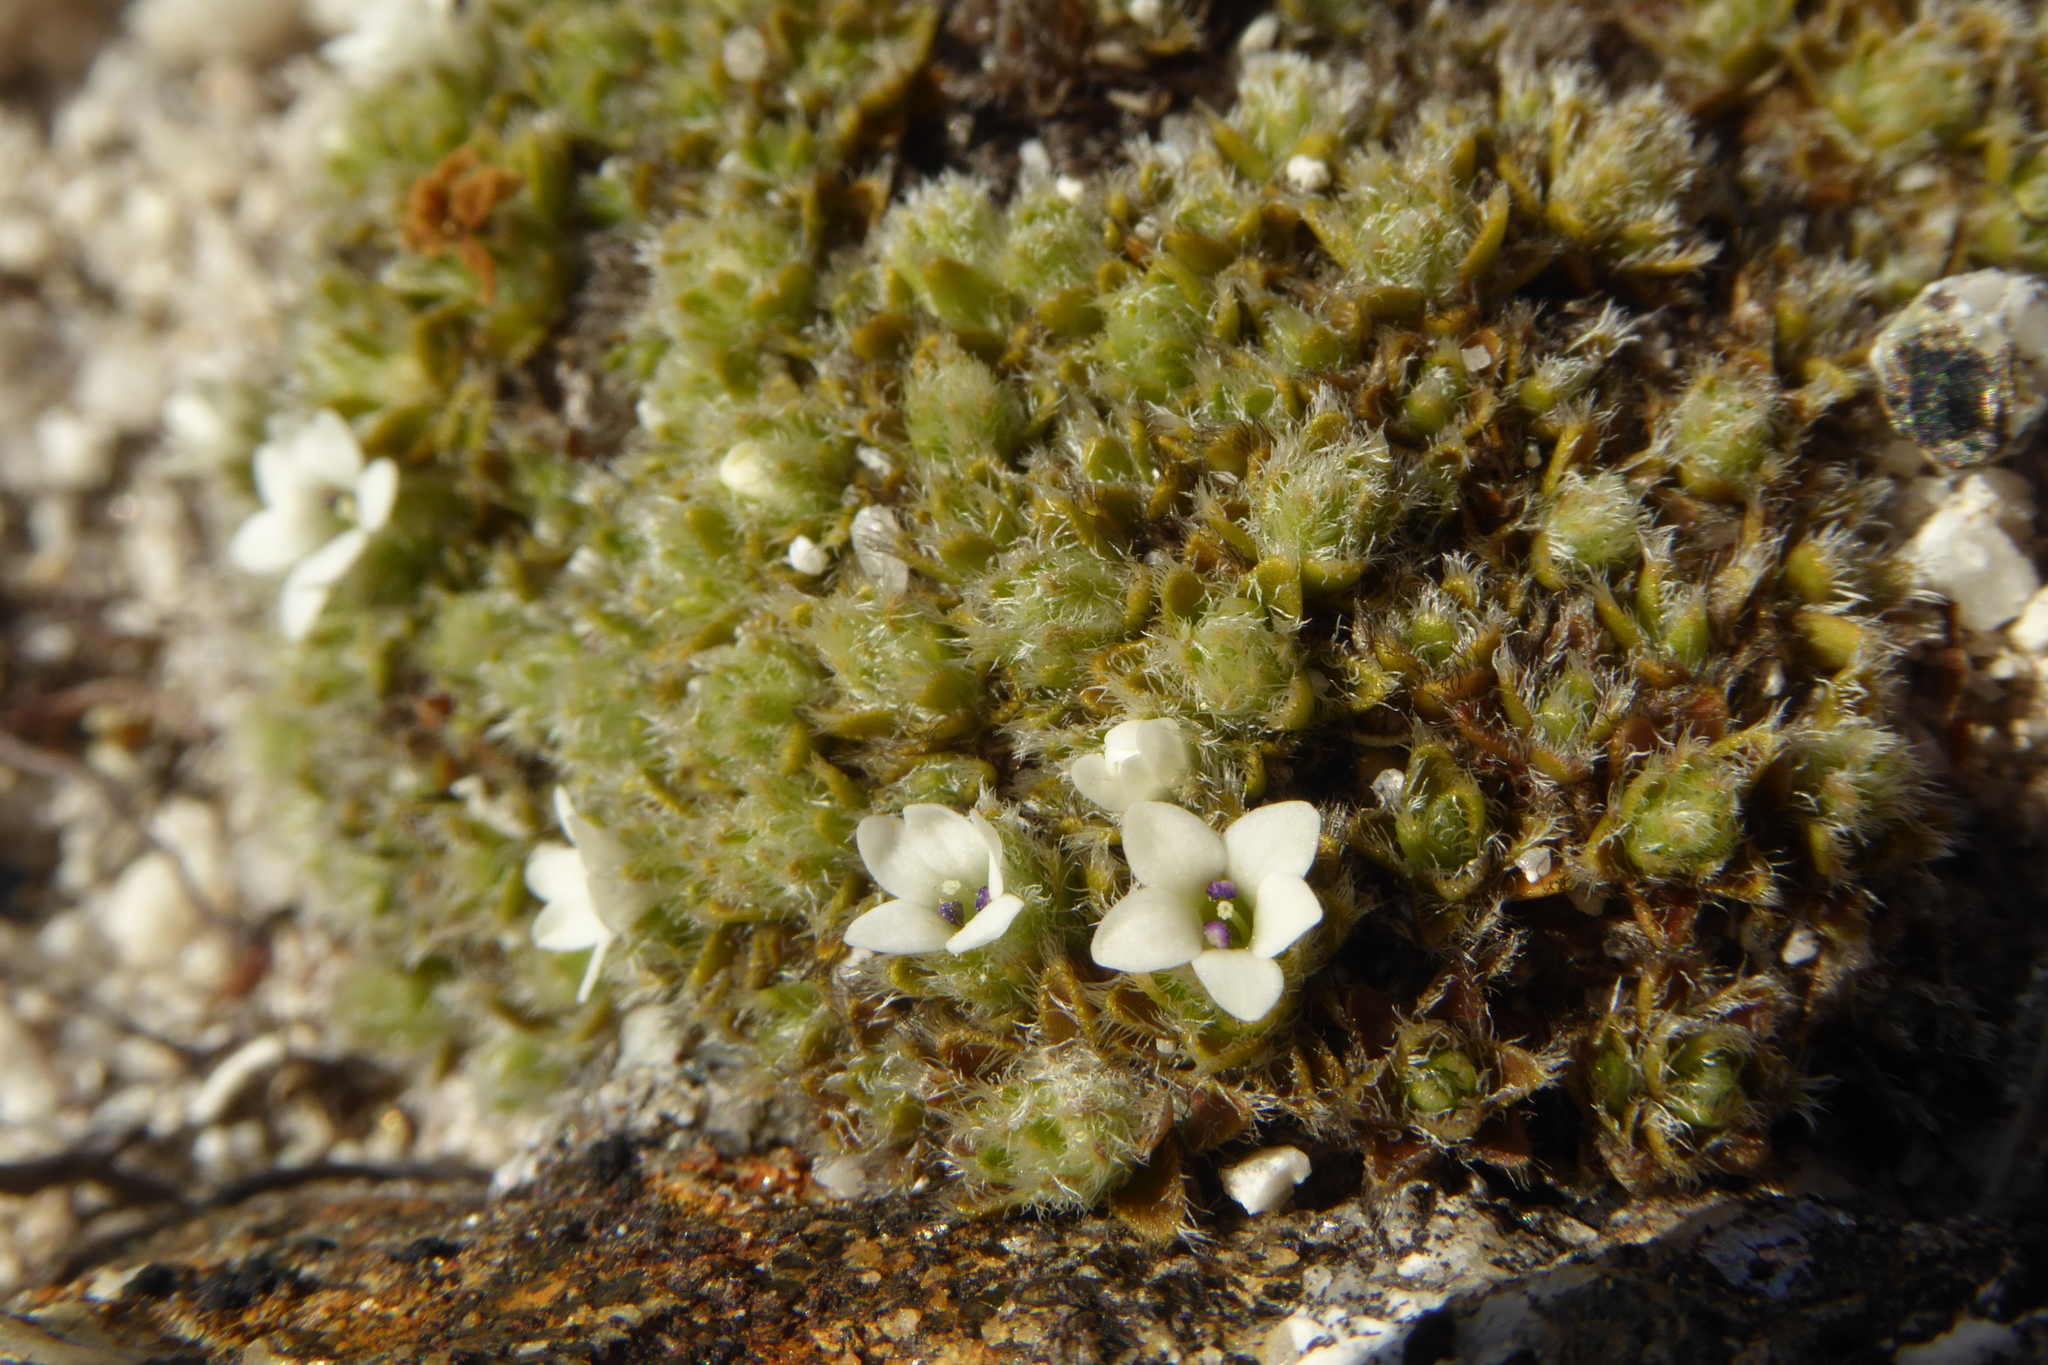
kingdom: Plantae
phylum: Tracheophyta
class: Magnoliopsida
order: Lamiales
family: Plantaginaceae
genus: Veronica
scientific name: Veronica ciliolata
